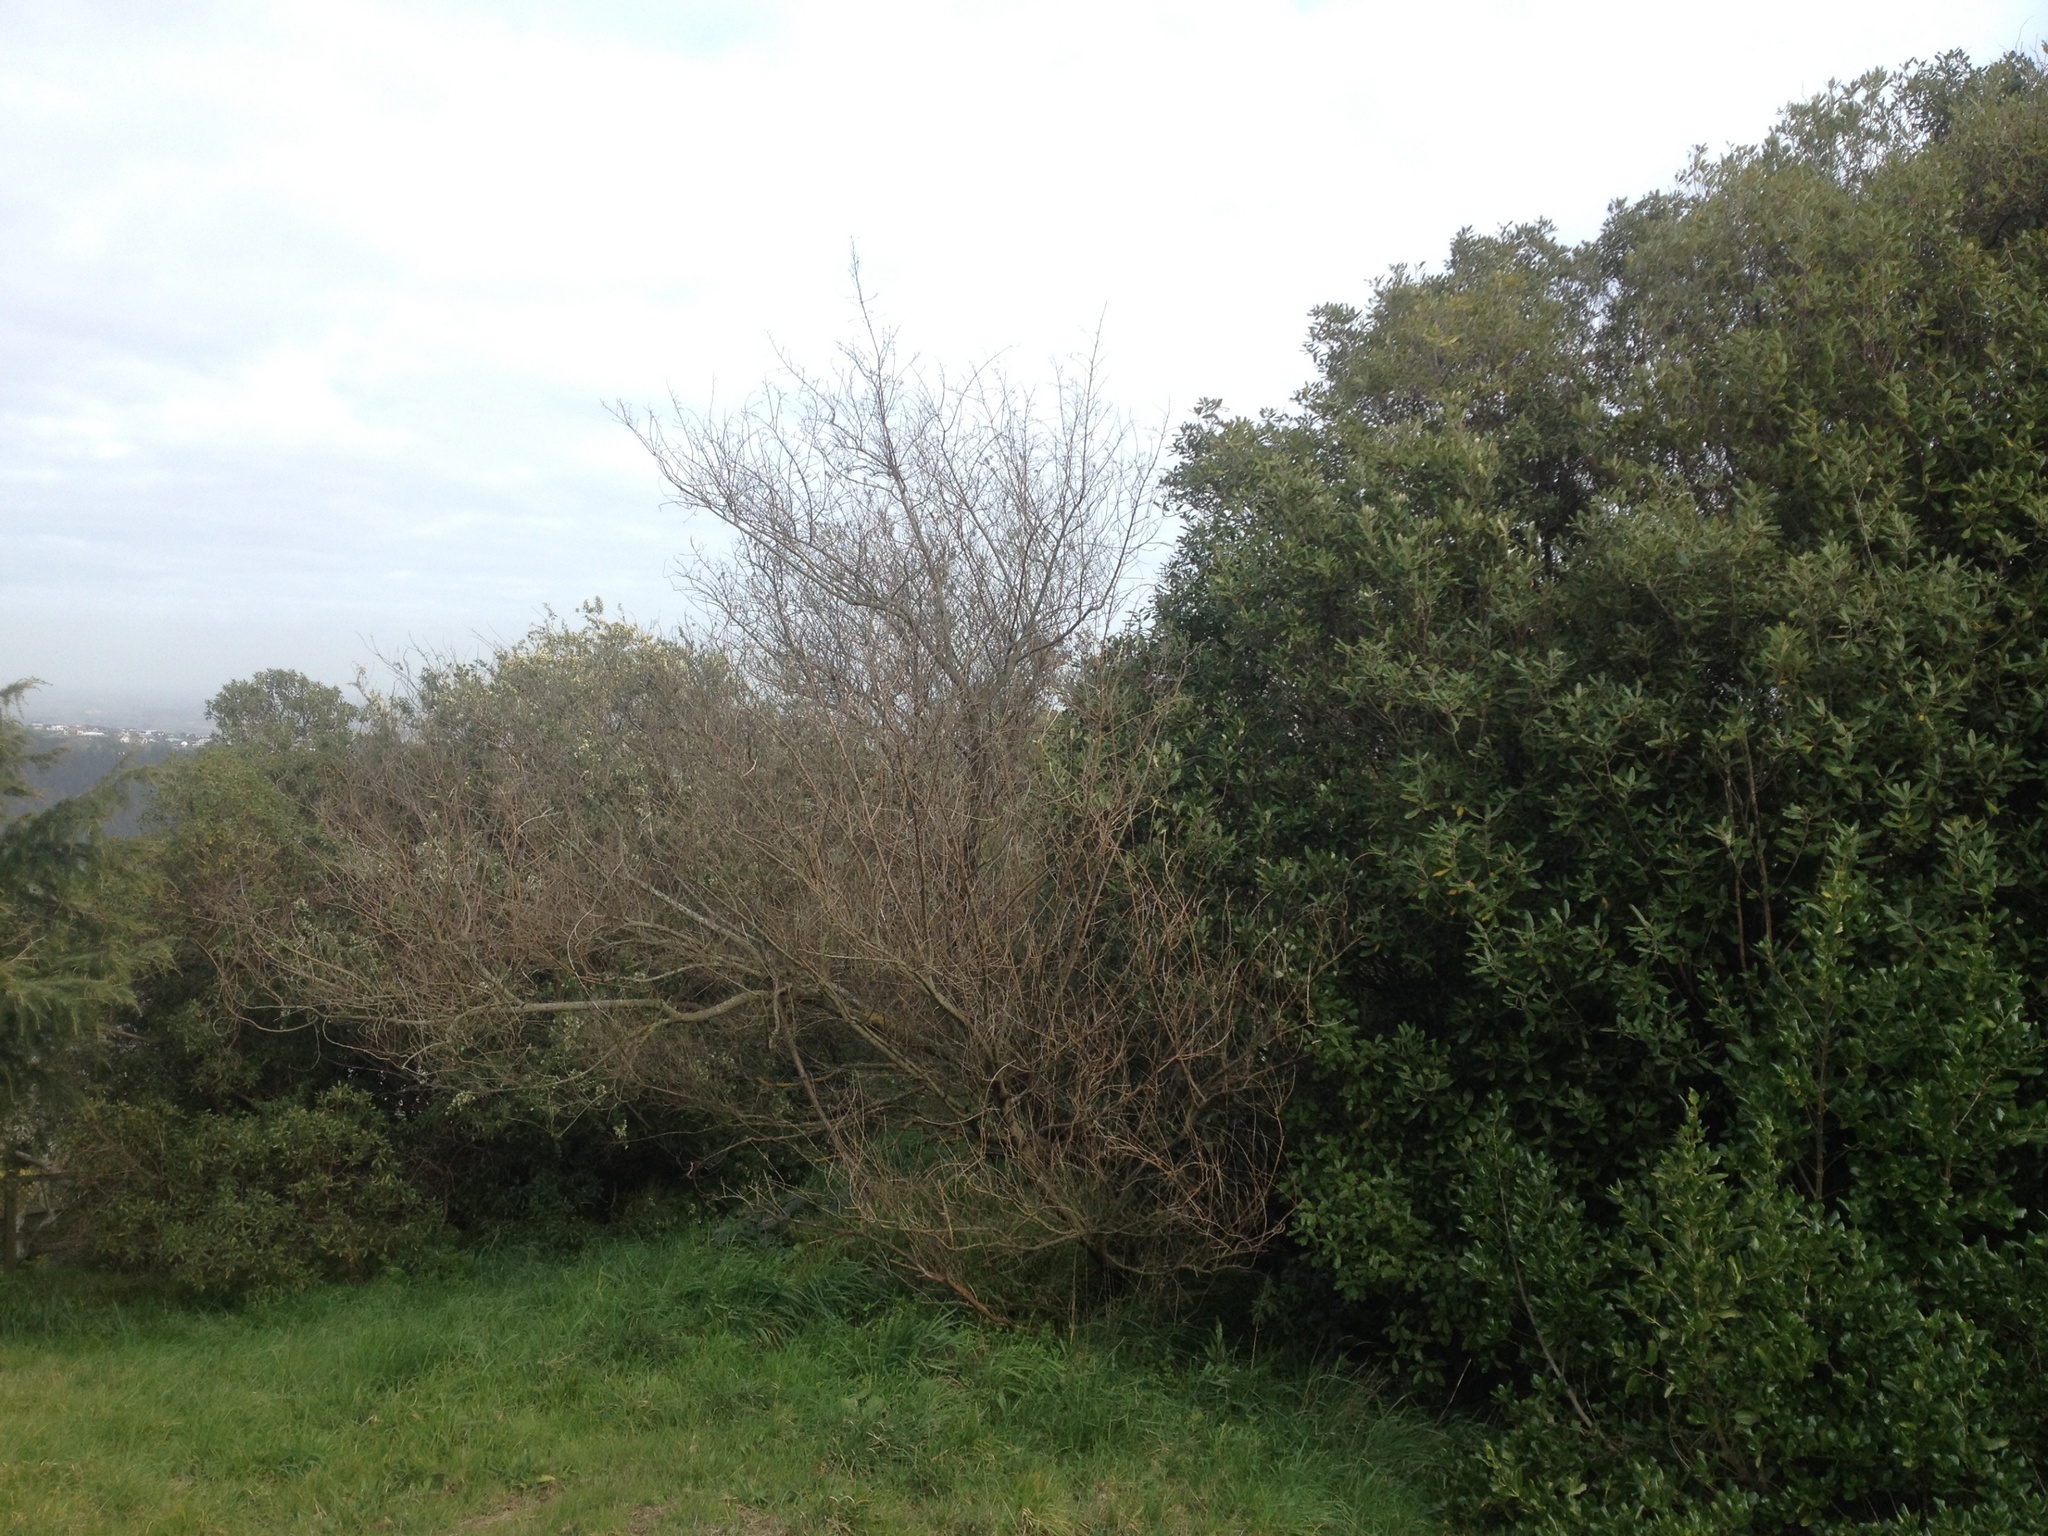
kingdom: Plantae
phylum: Tracheophyta
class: Magnoliopsida
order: Fabales
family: Fabaceae
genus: Chamaecytisus
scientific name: Chamaecytisus prolifer
